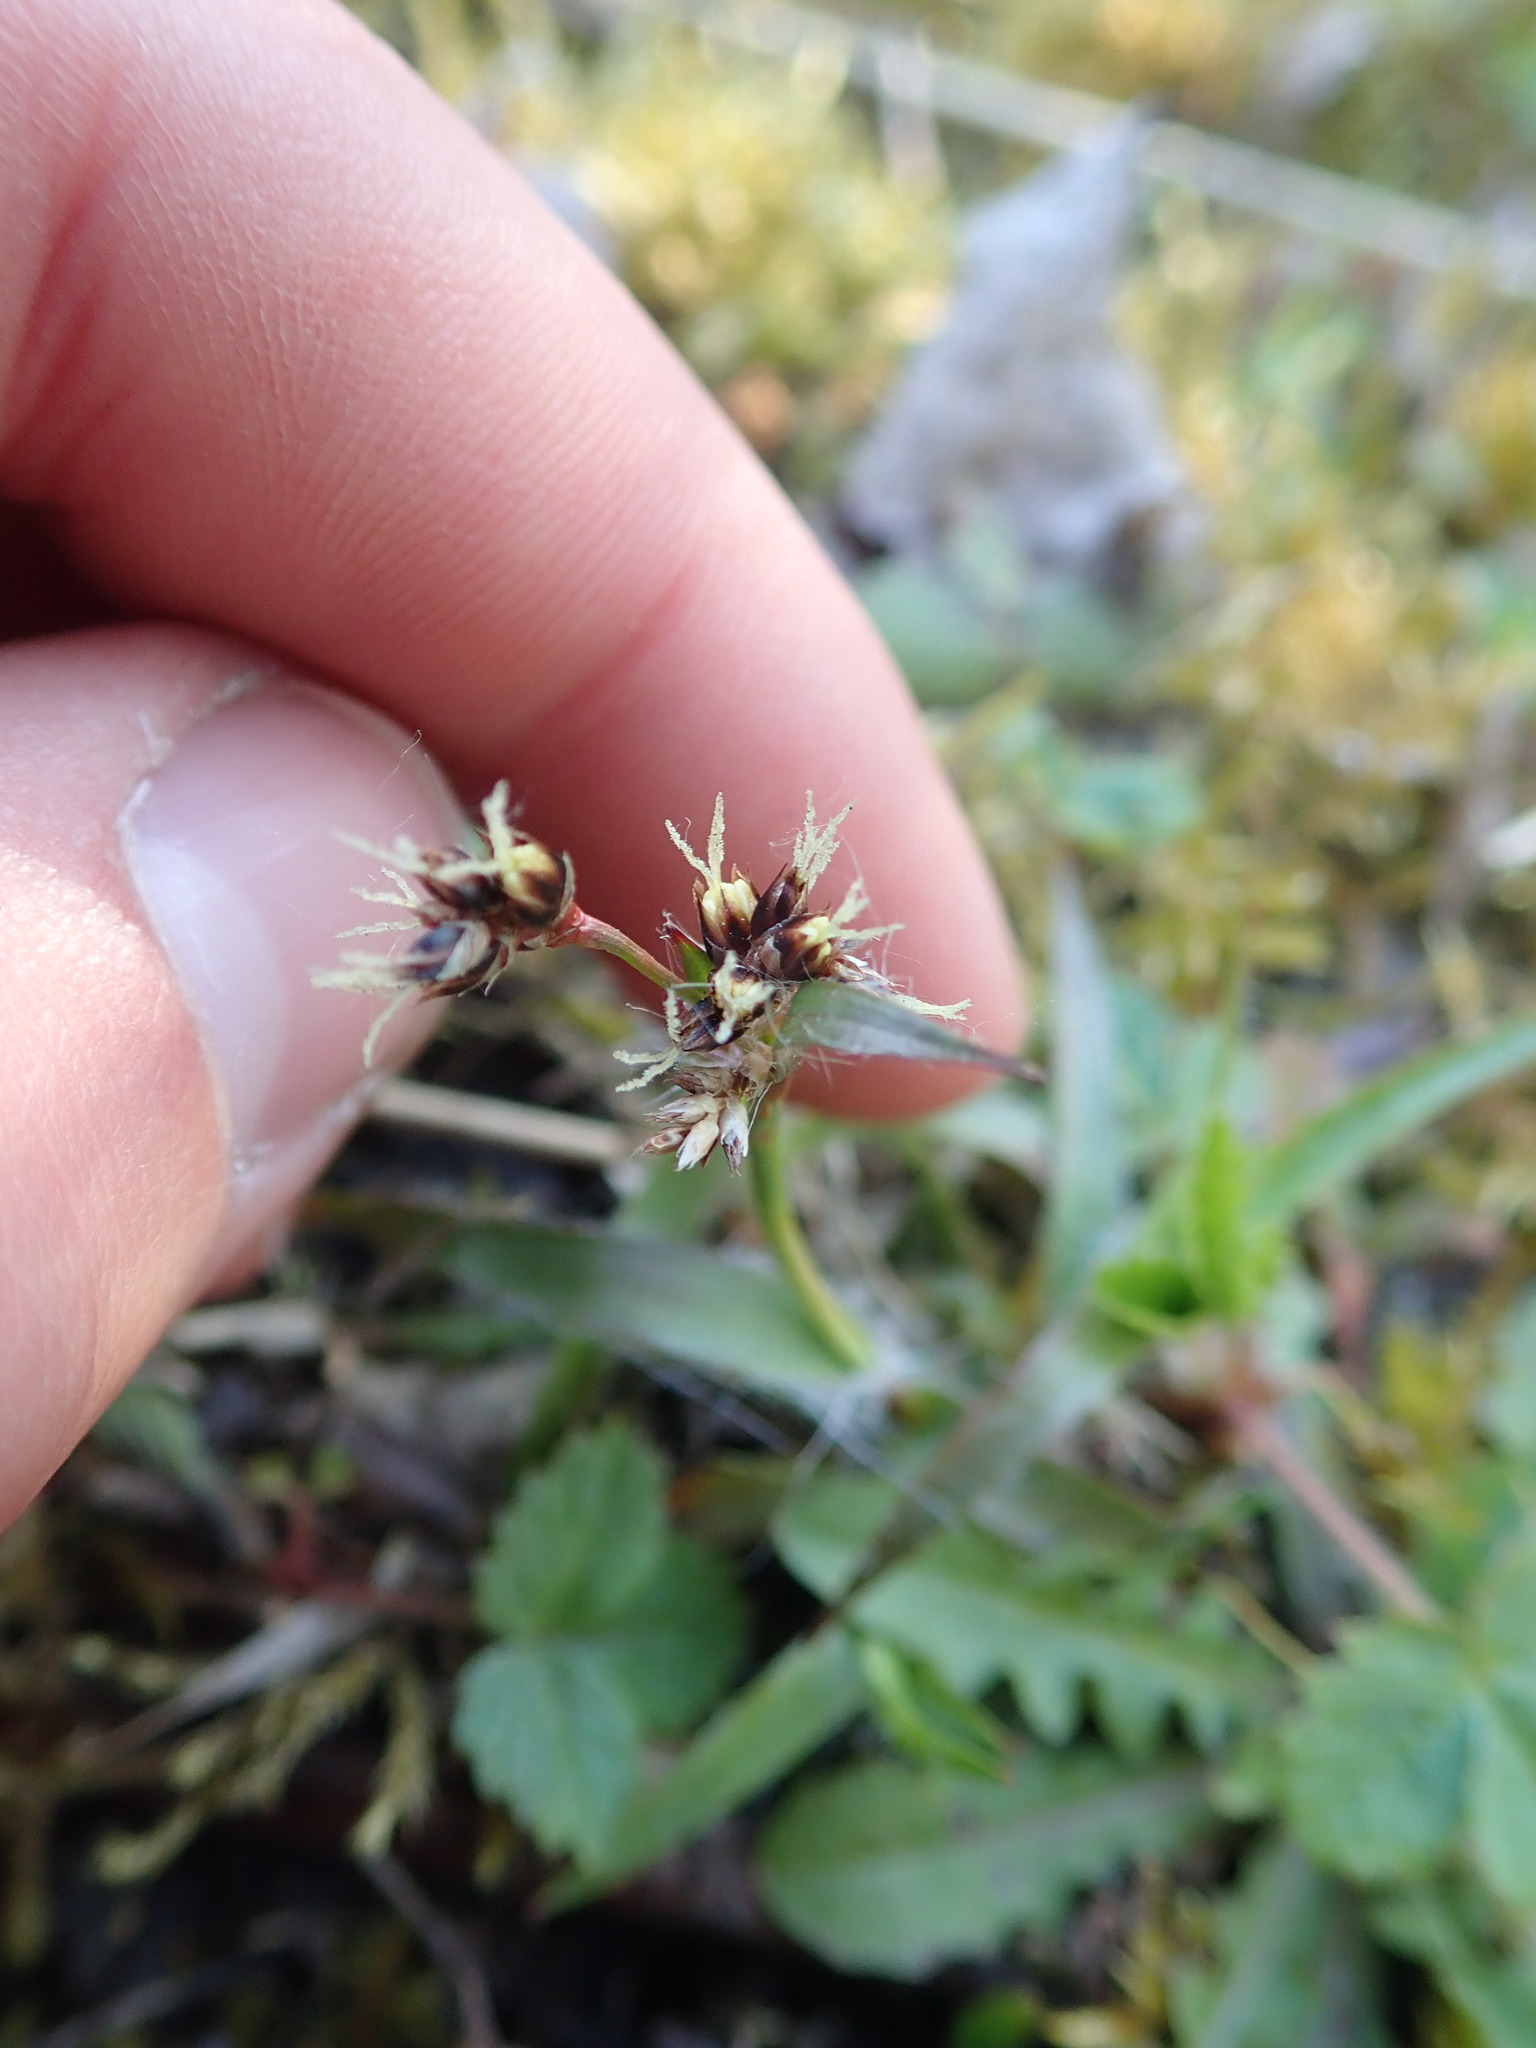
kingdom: Plantae
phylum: Tracheophyta
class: Liliopsida
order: Poales
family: Juncaceae
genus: Luzula
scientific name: Luzula campestris
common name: Field wood-rush
